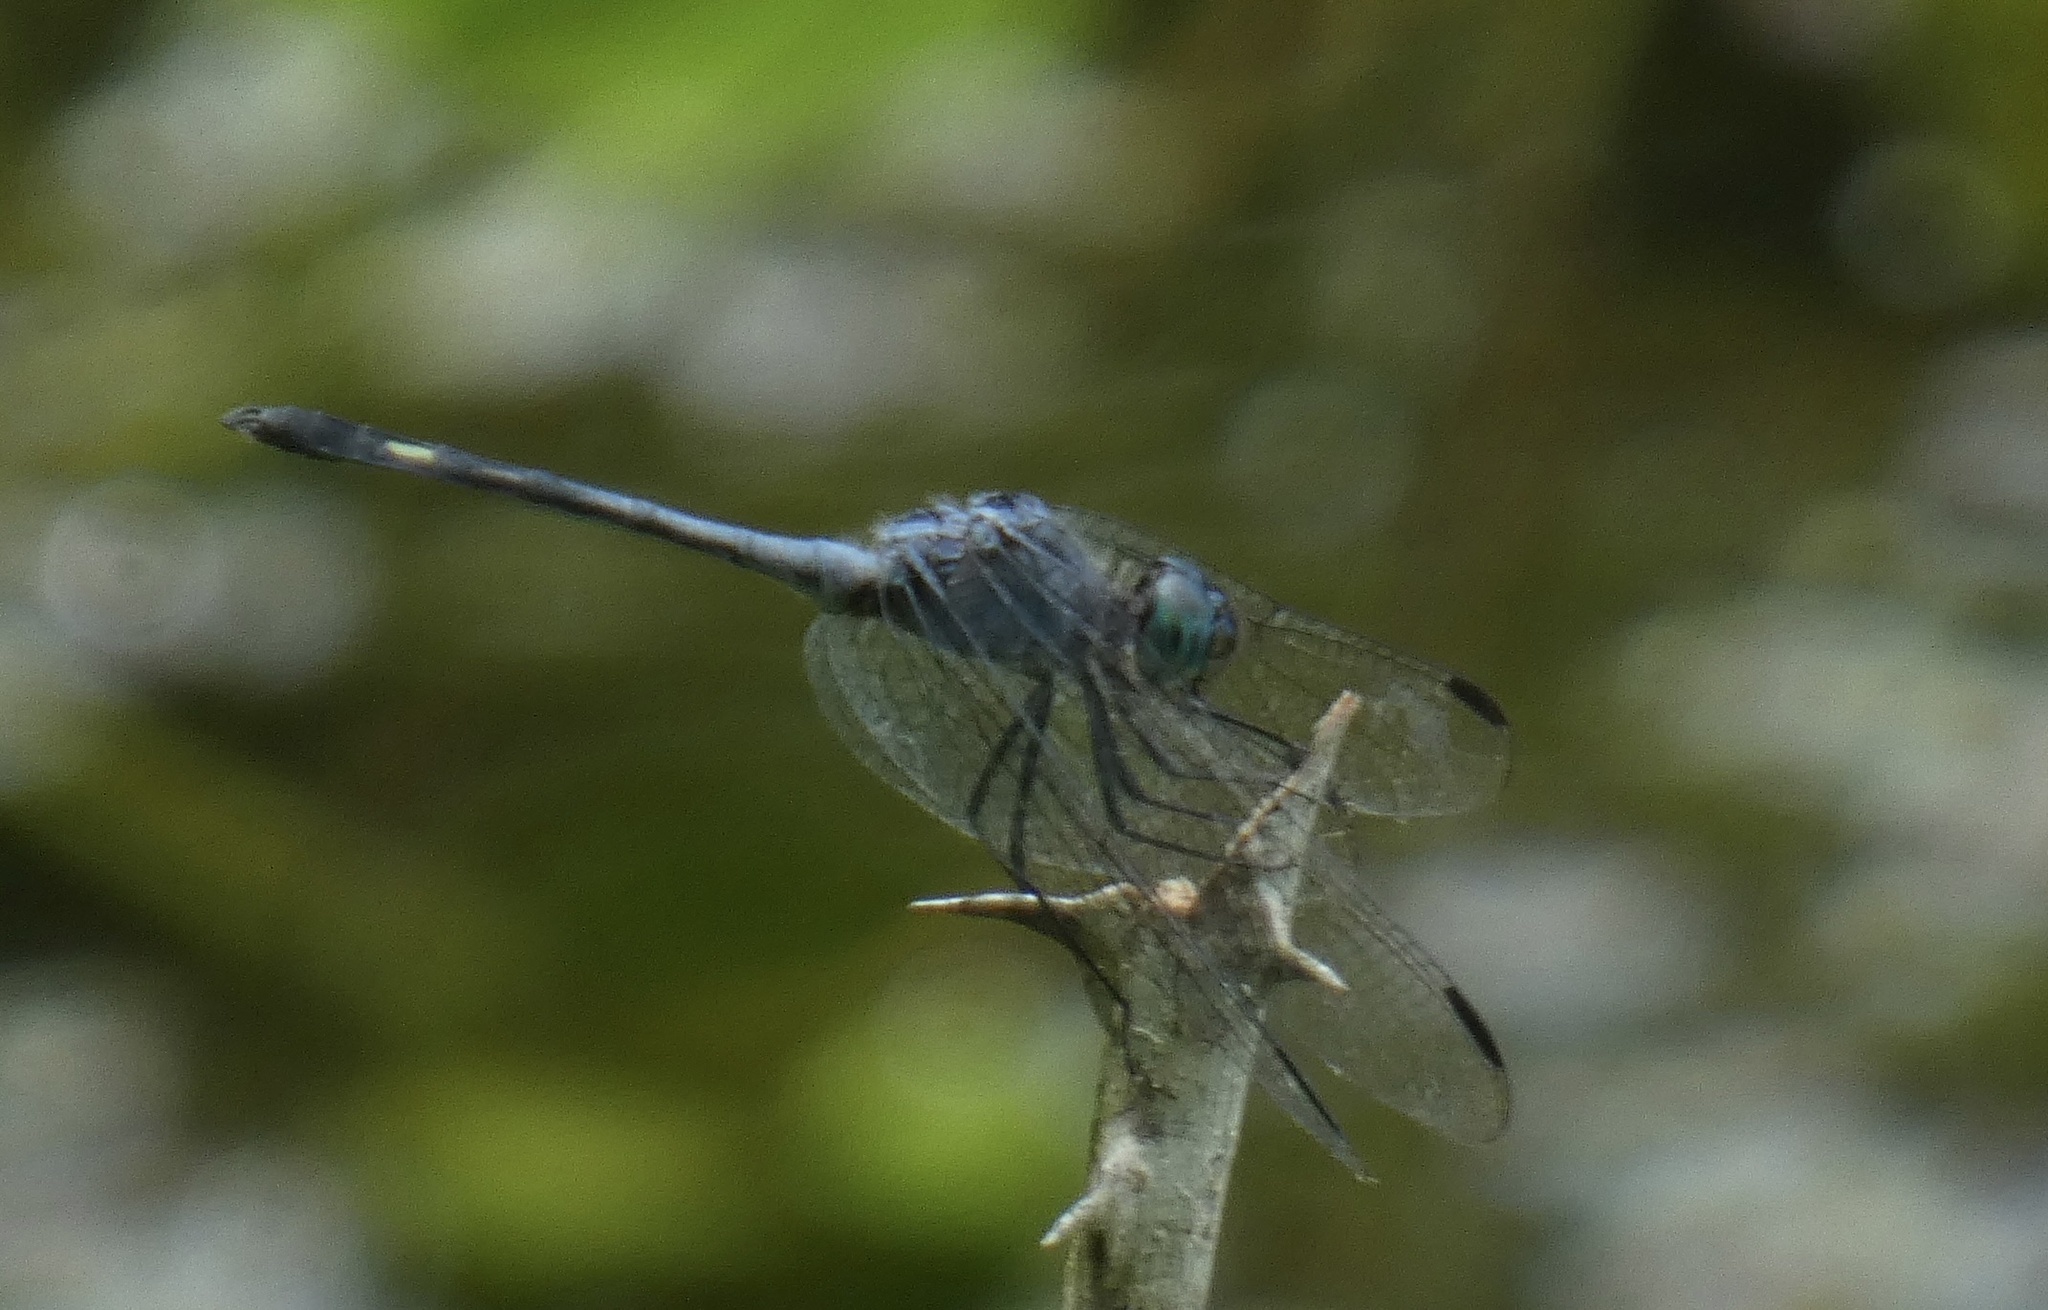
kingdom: Animalia
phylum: Arthropoda
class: Insecta
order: Odonata
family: Libellulidae
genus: Micrathyria
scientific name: Micrathyria artemis
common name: Artemis dasher
